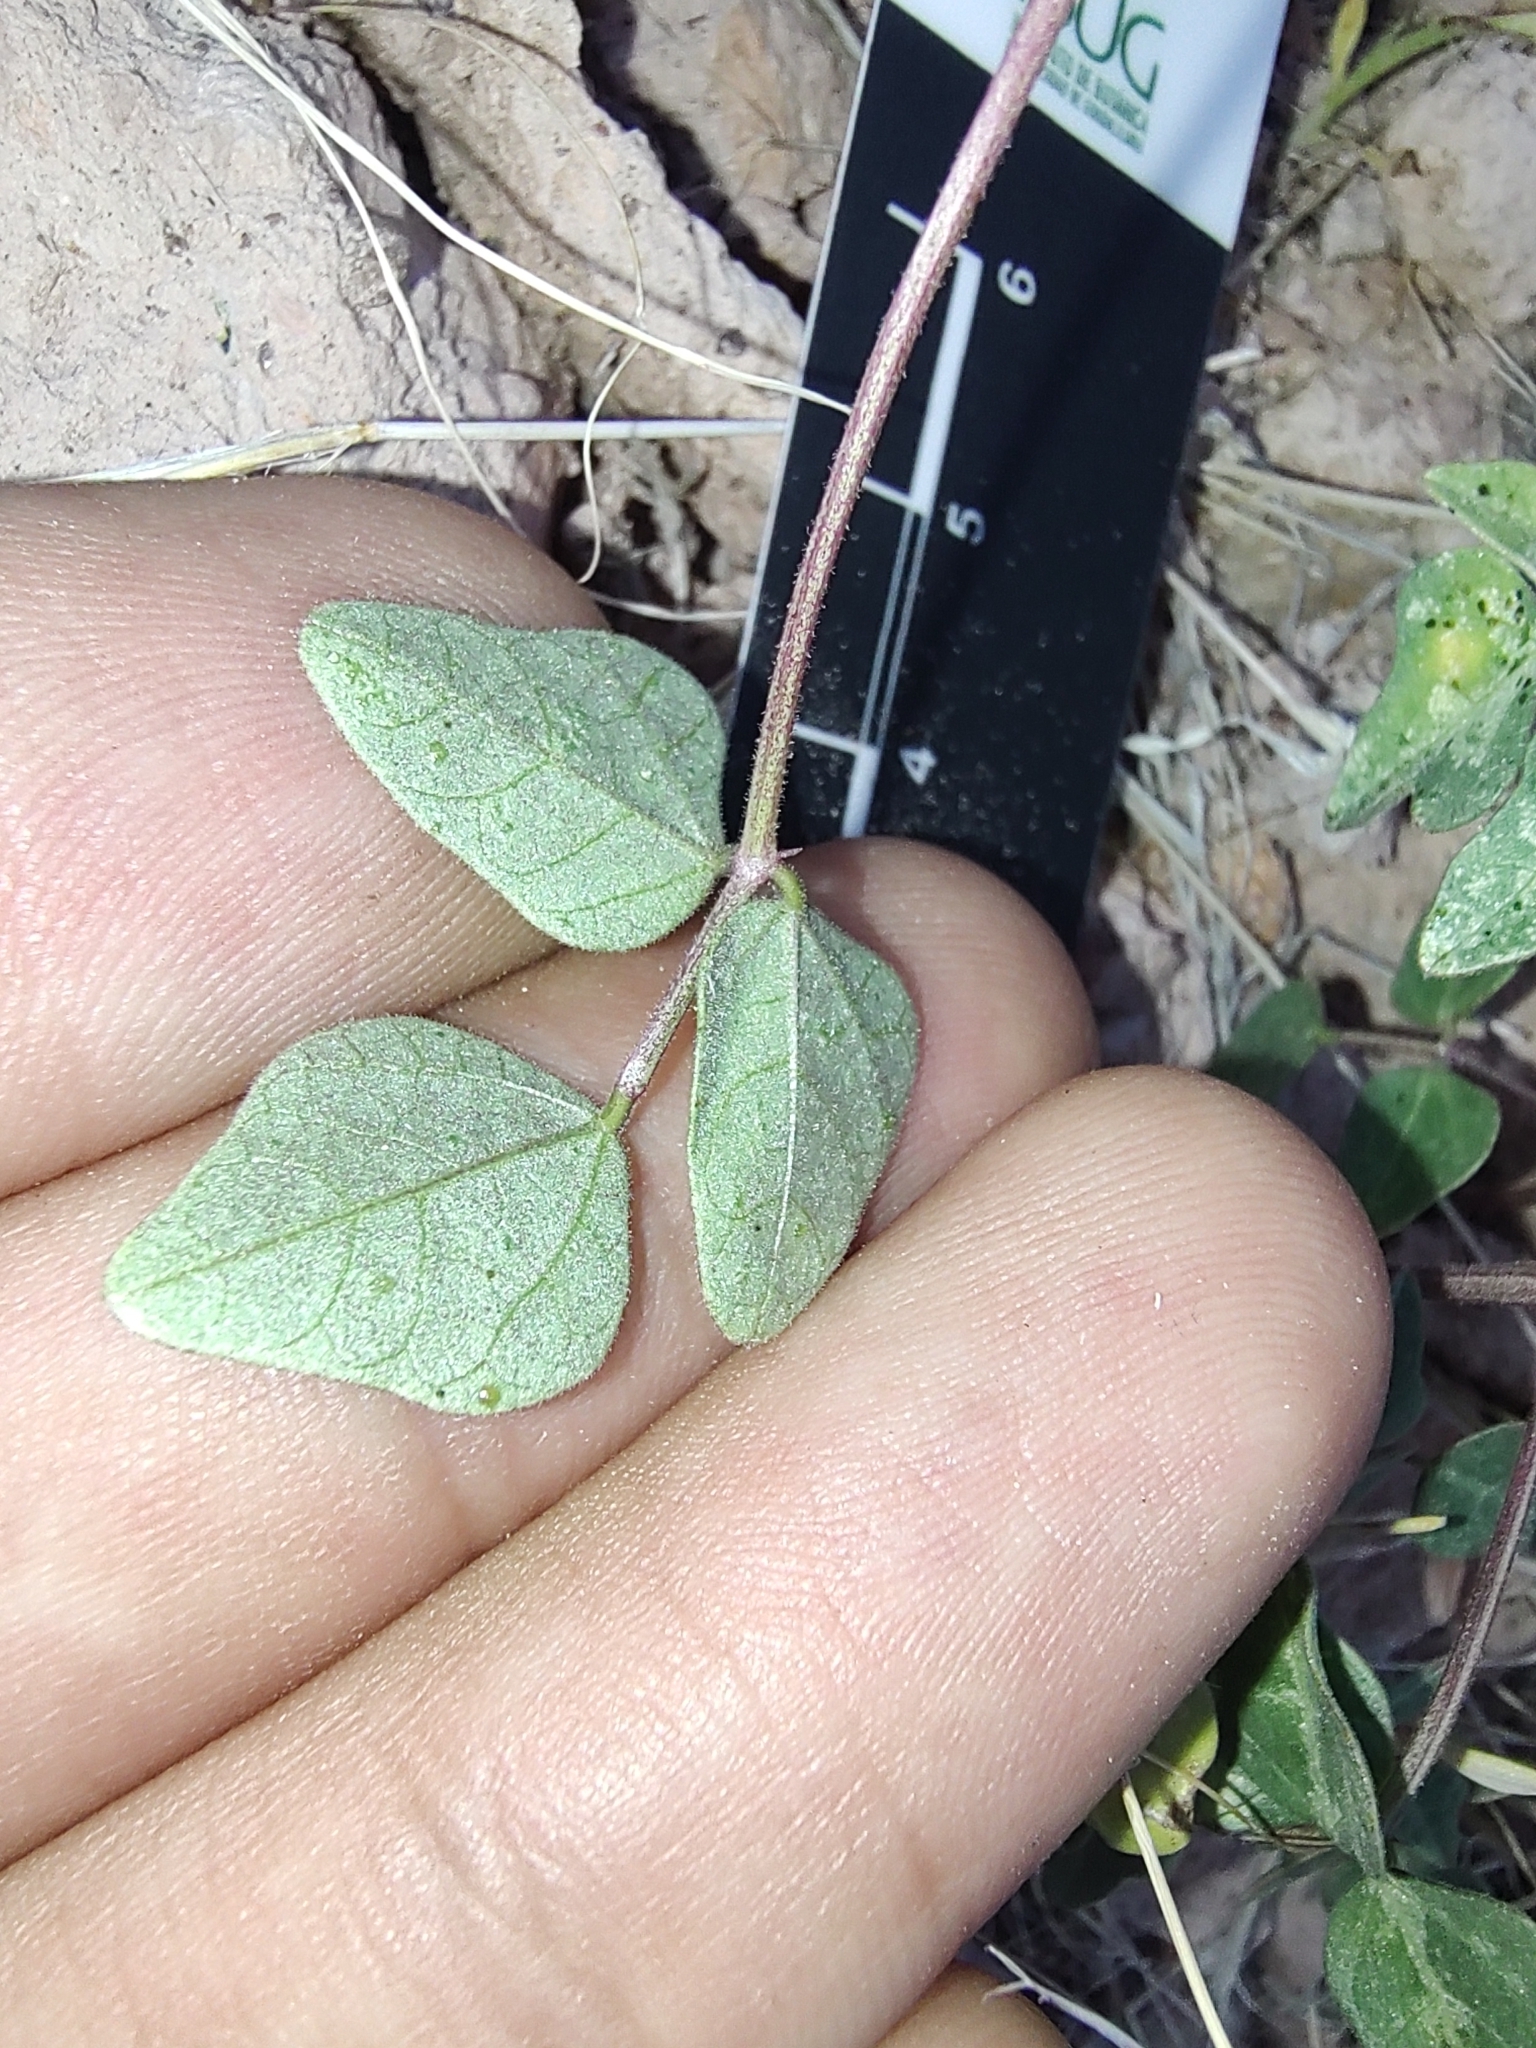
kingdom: Plantae
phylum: Tracheophyta
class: Magnoliopsida
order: Fabales
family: Fabaceae
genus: Phaseolus
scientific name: Phaseolus filiformis
